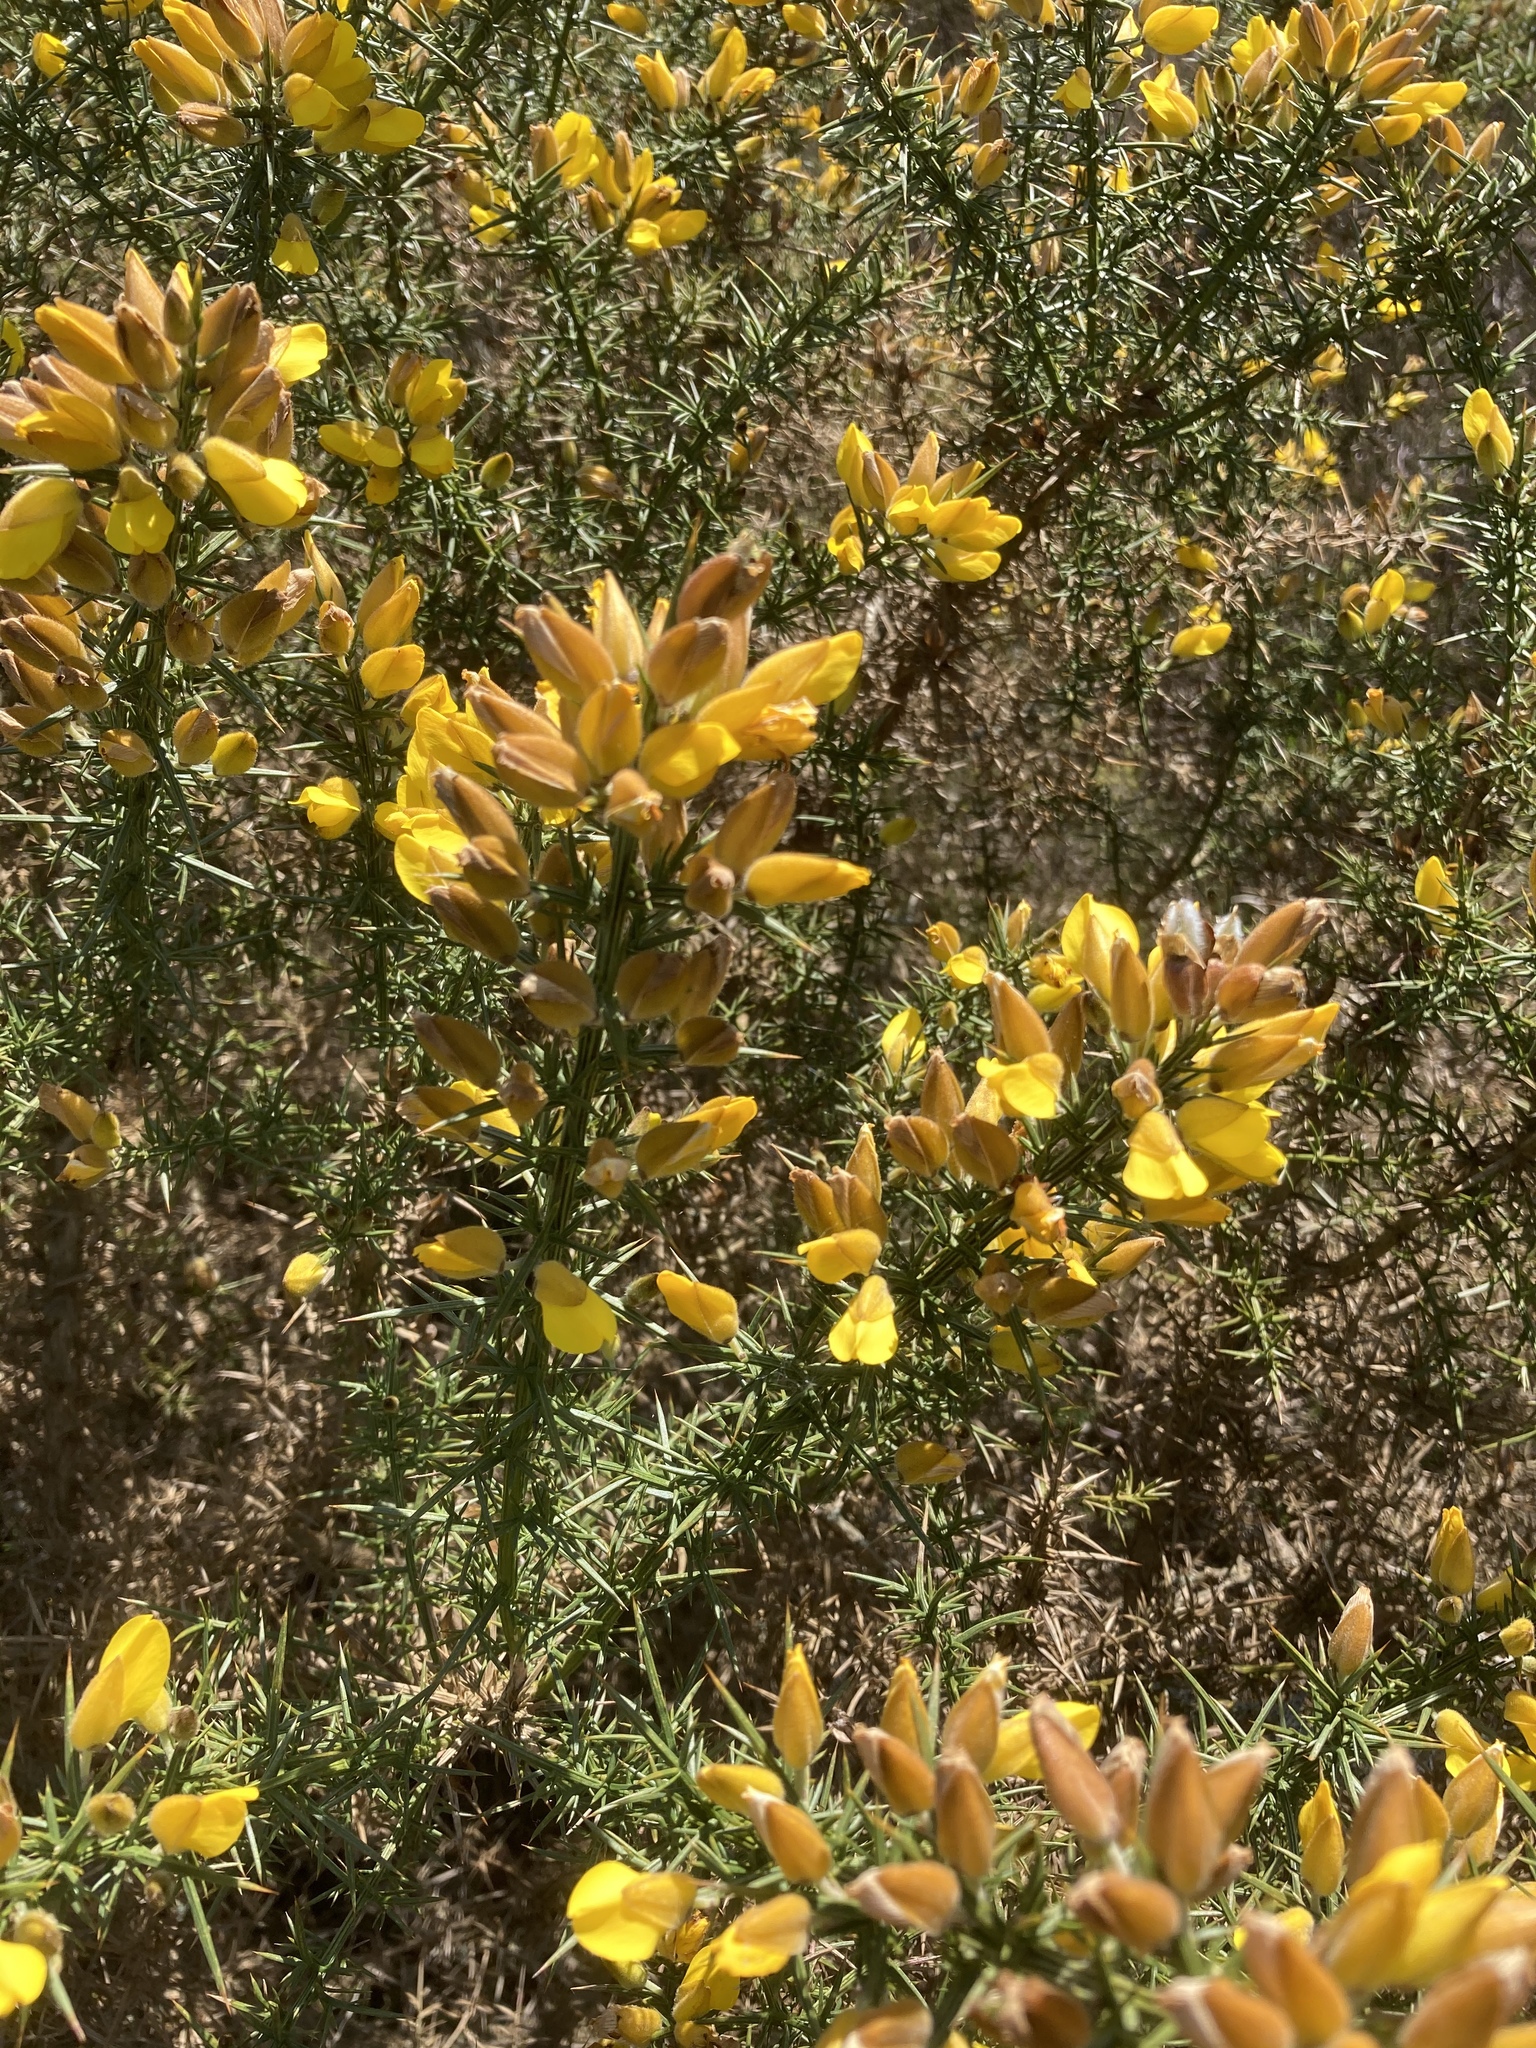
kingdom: Plantae
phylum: Tracheophyta
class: Magnoliopsida
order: Fabales
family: Fabaceae
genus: Ulex
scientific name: Ulex europaeus
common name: Common gorse
